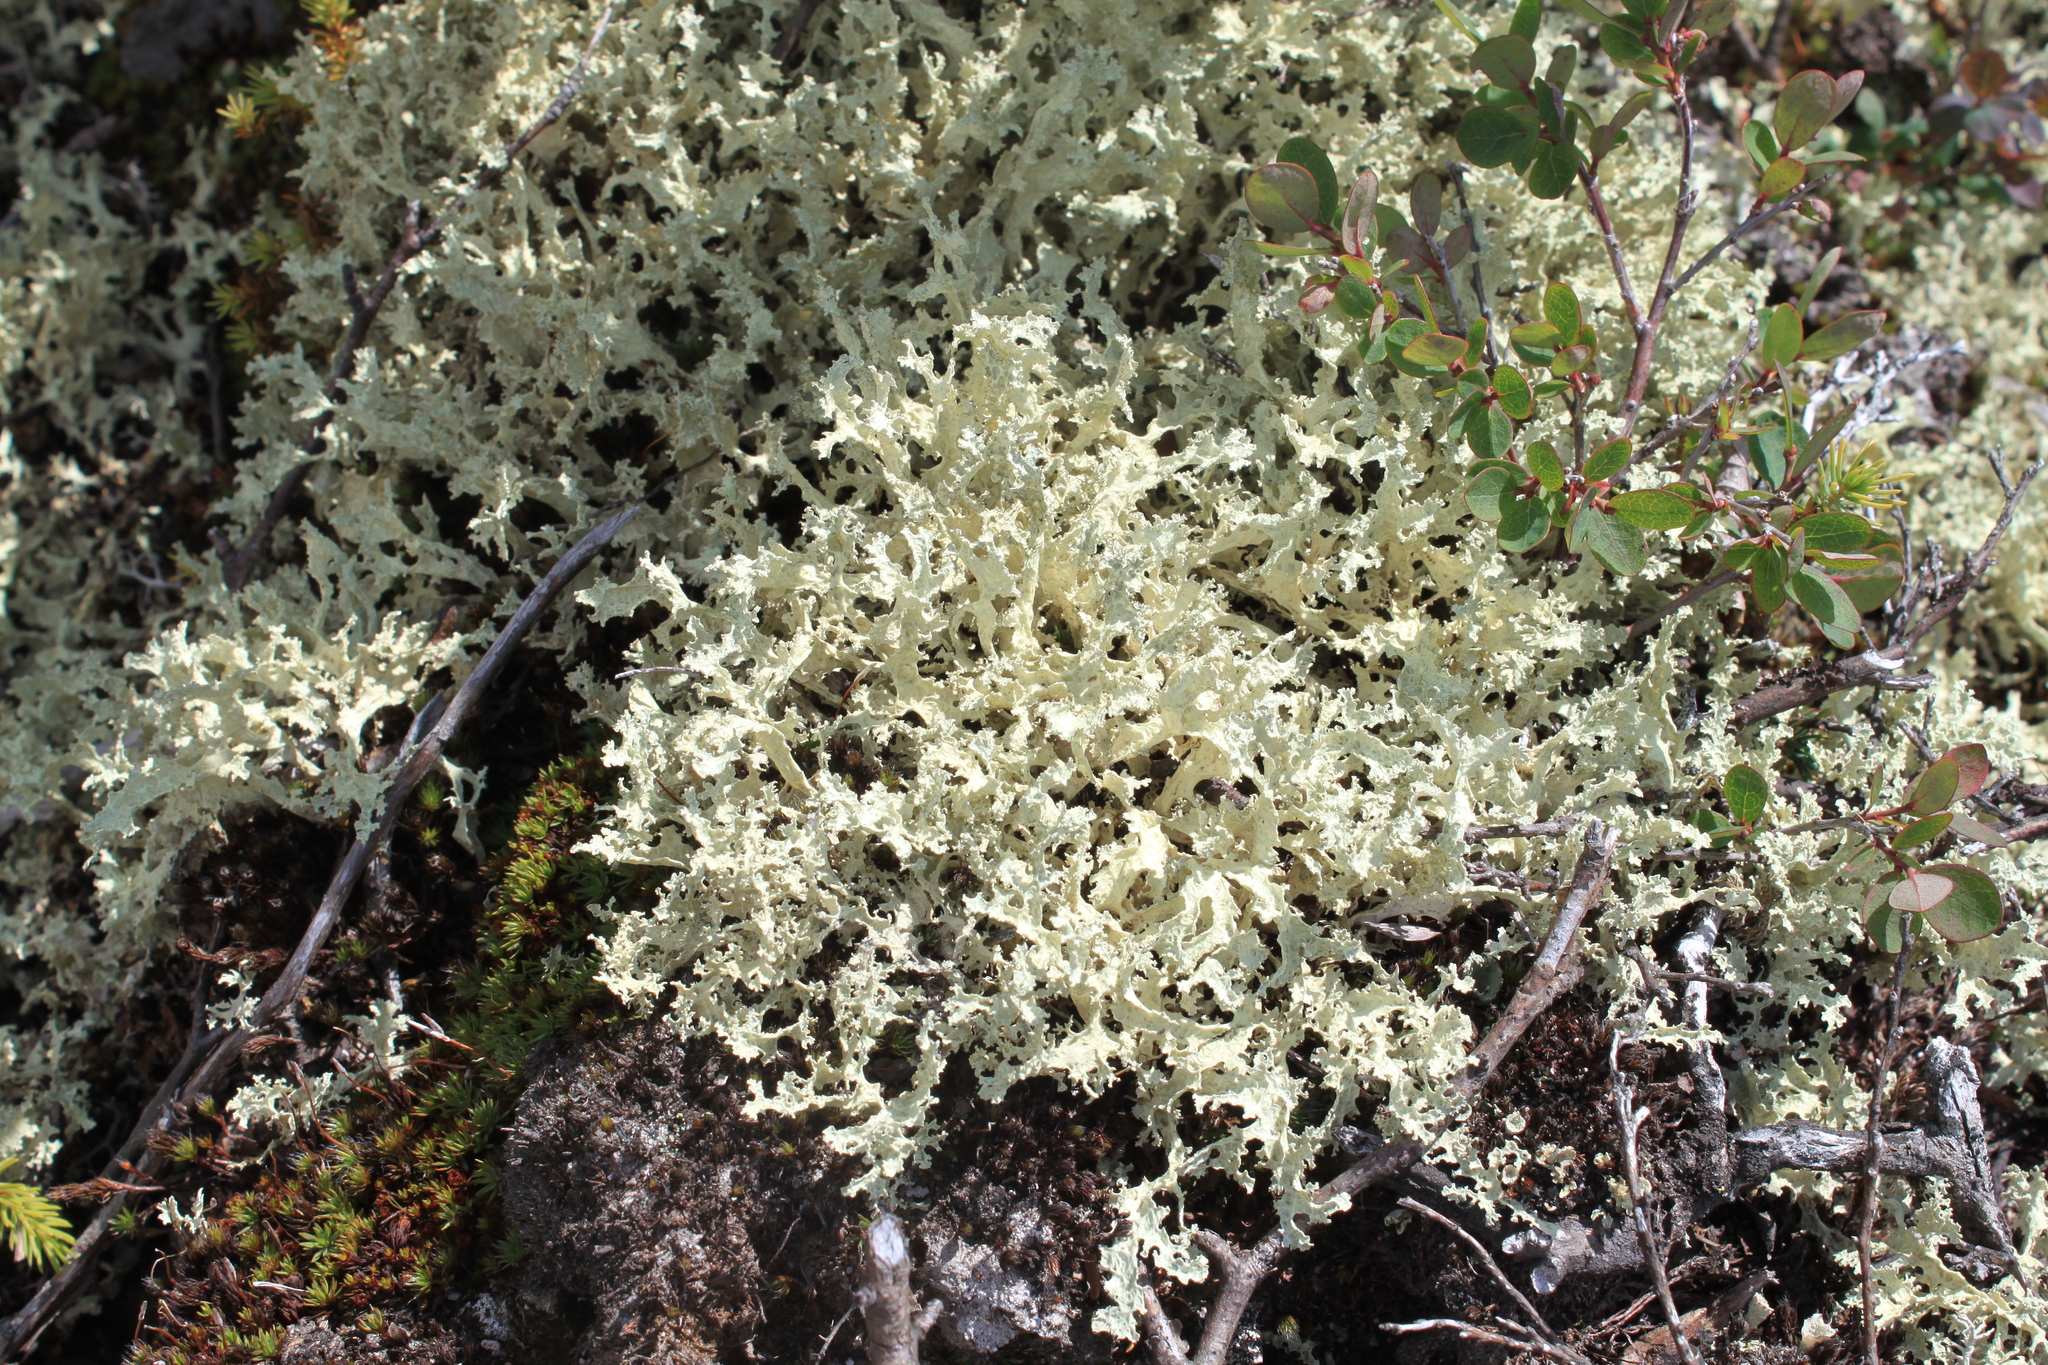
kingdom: Fungi
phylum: Ascomycota
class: Lecanoromycetes
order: Lecanorales
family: Parmeliaceae
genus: Nephromopsis
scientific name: Nephromopsis nivalis
